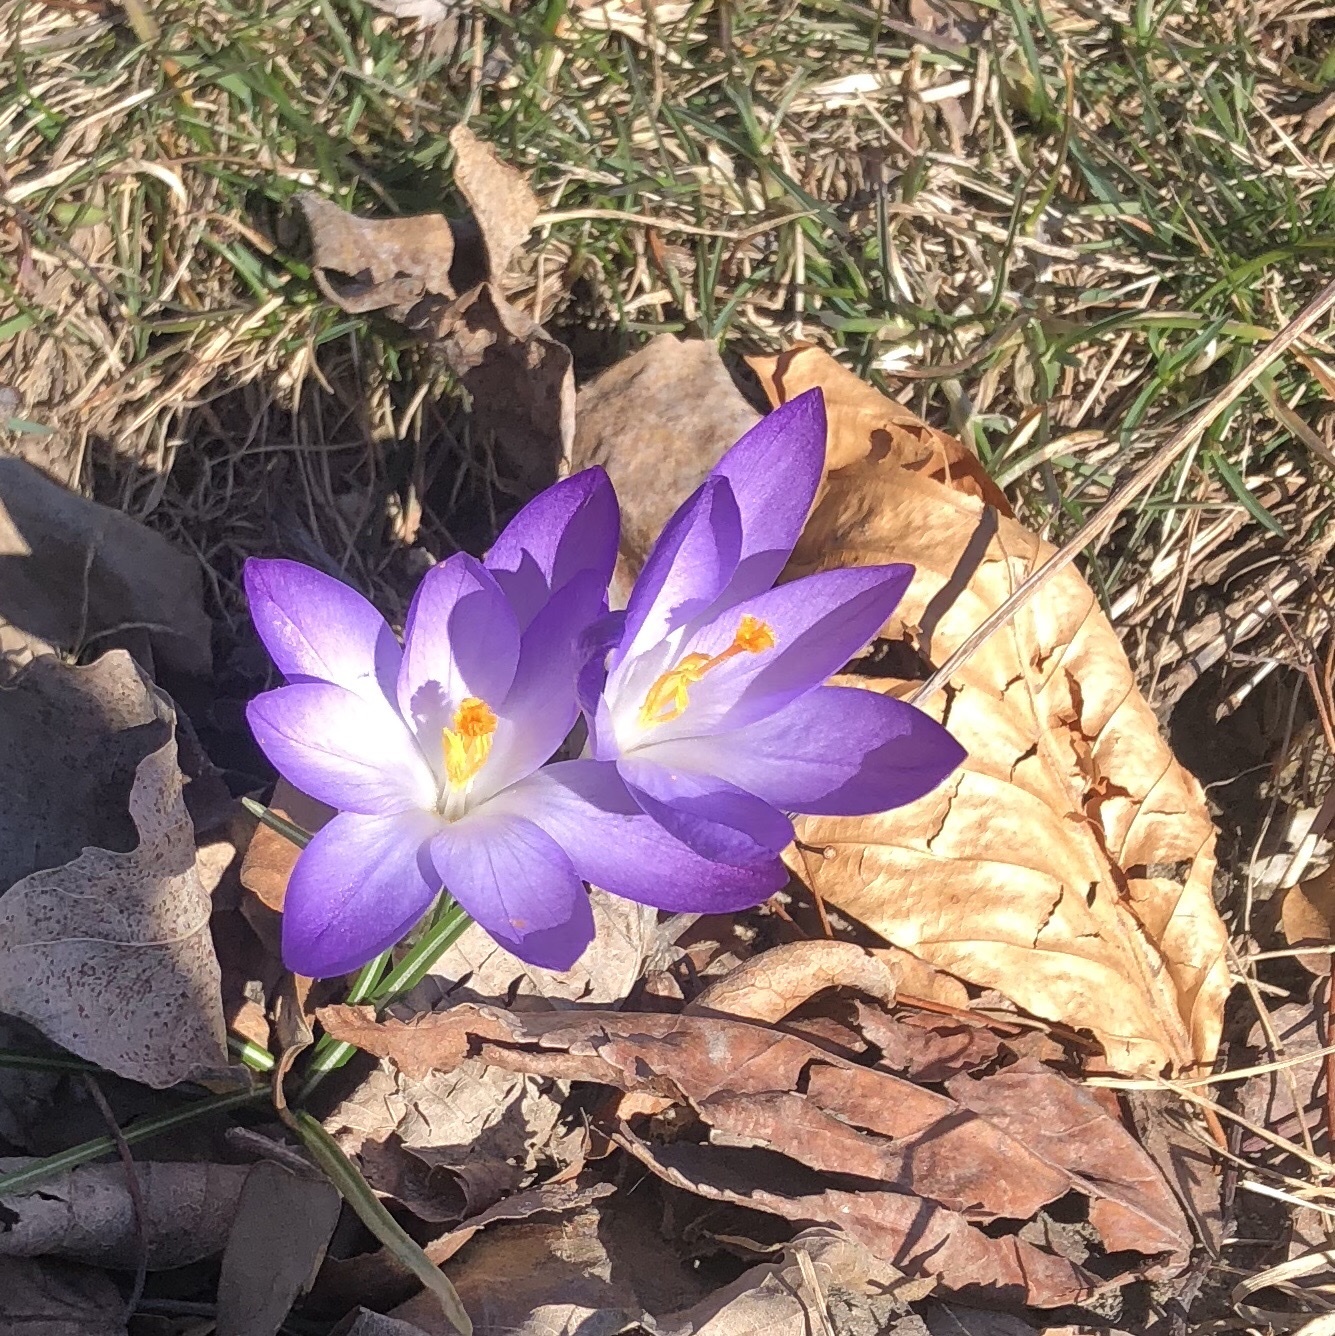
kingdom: Plantae
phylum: Tracheophyta
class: Liliopsida
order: Asparagales
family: Iridaceae
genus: Crocus
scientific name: Crocus tommasinianus
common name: Early crocus
